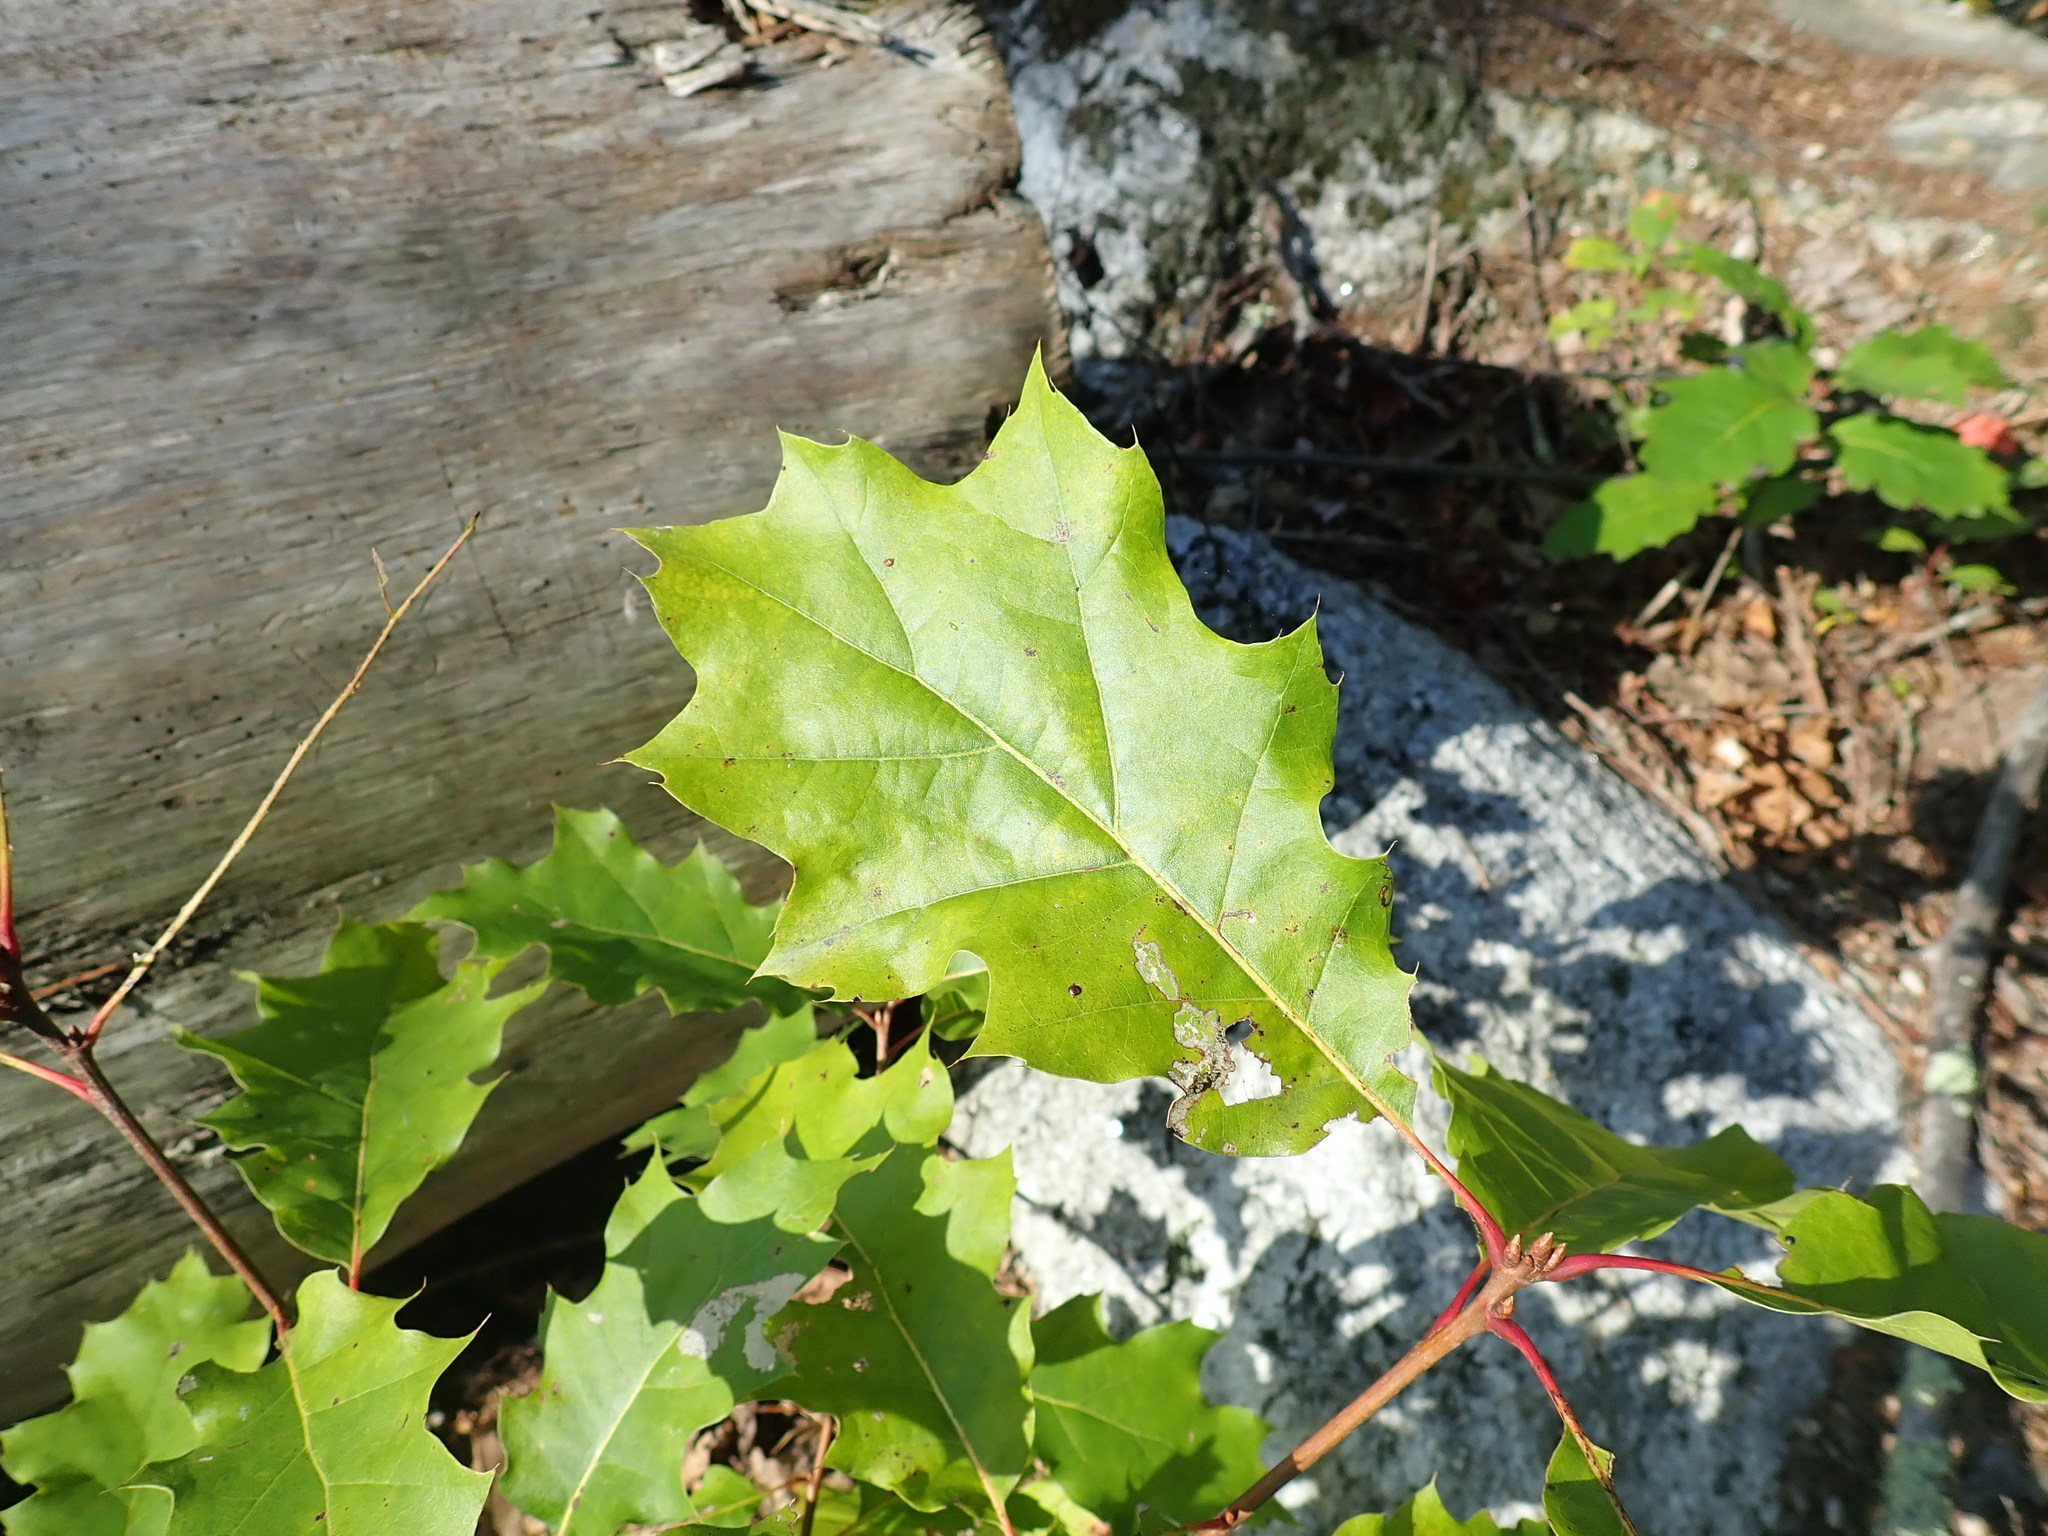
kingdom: Plantae
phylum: Tracheophyta
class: Magnoliopsida
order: Fagales
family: Fagaceae
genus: Quercus
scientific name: Quercus rubra
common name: Red oak
